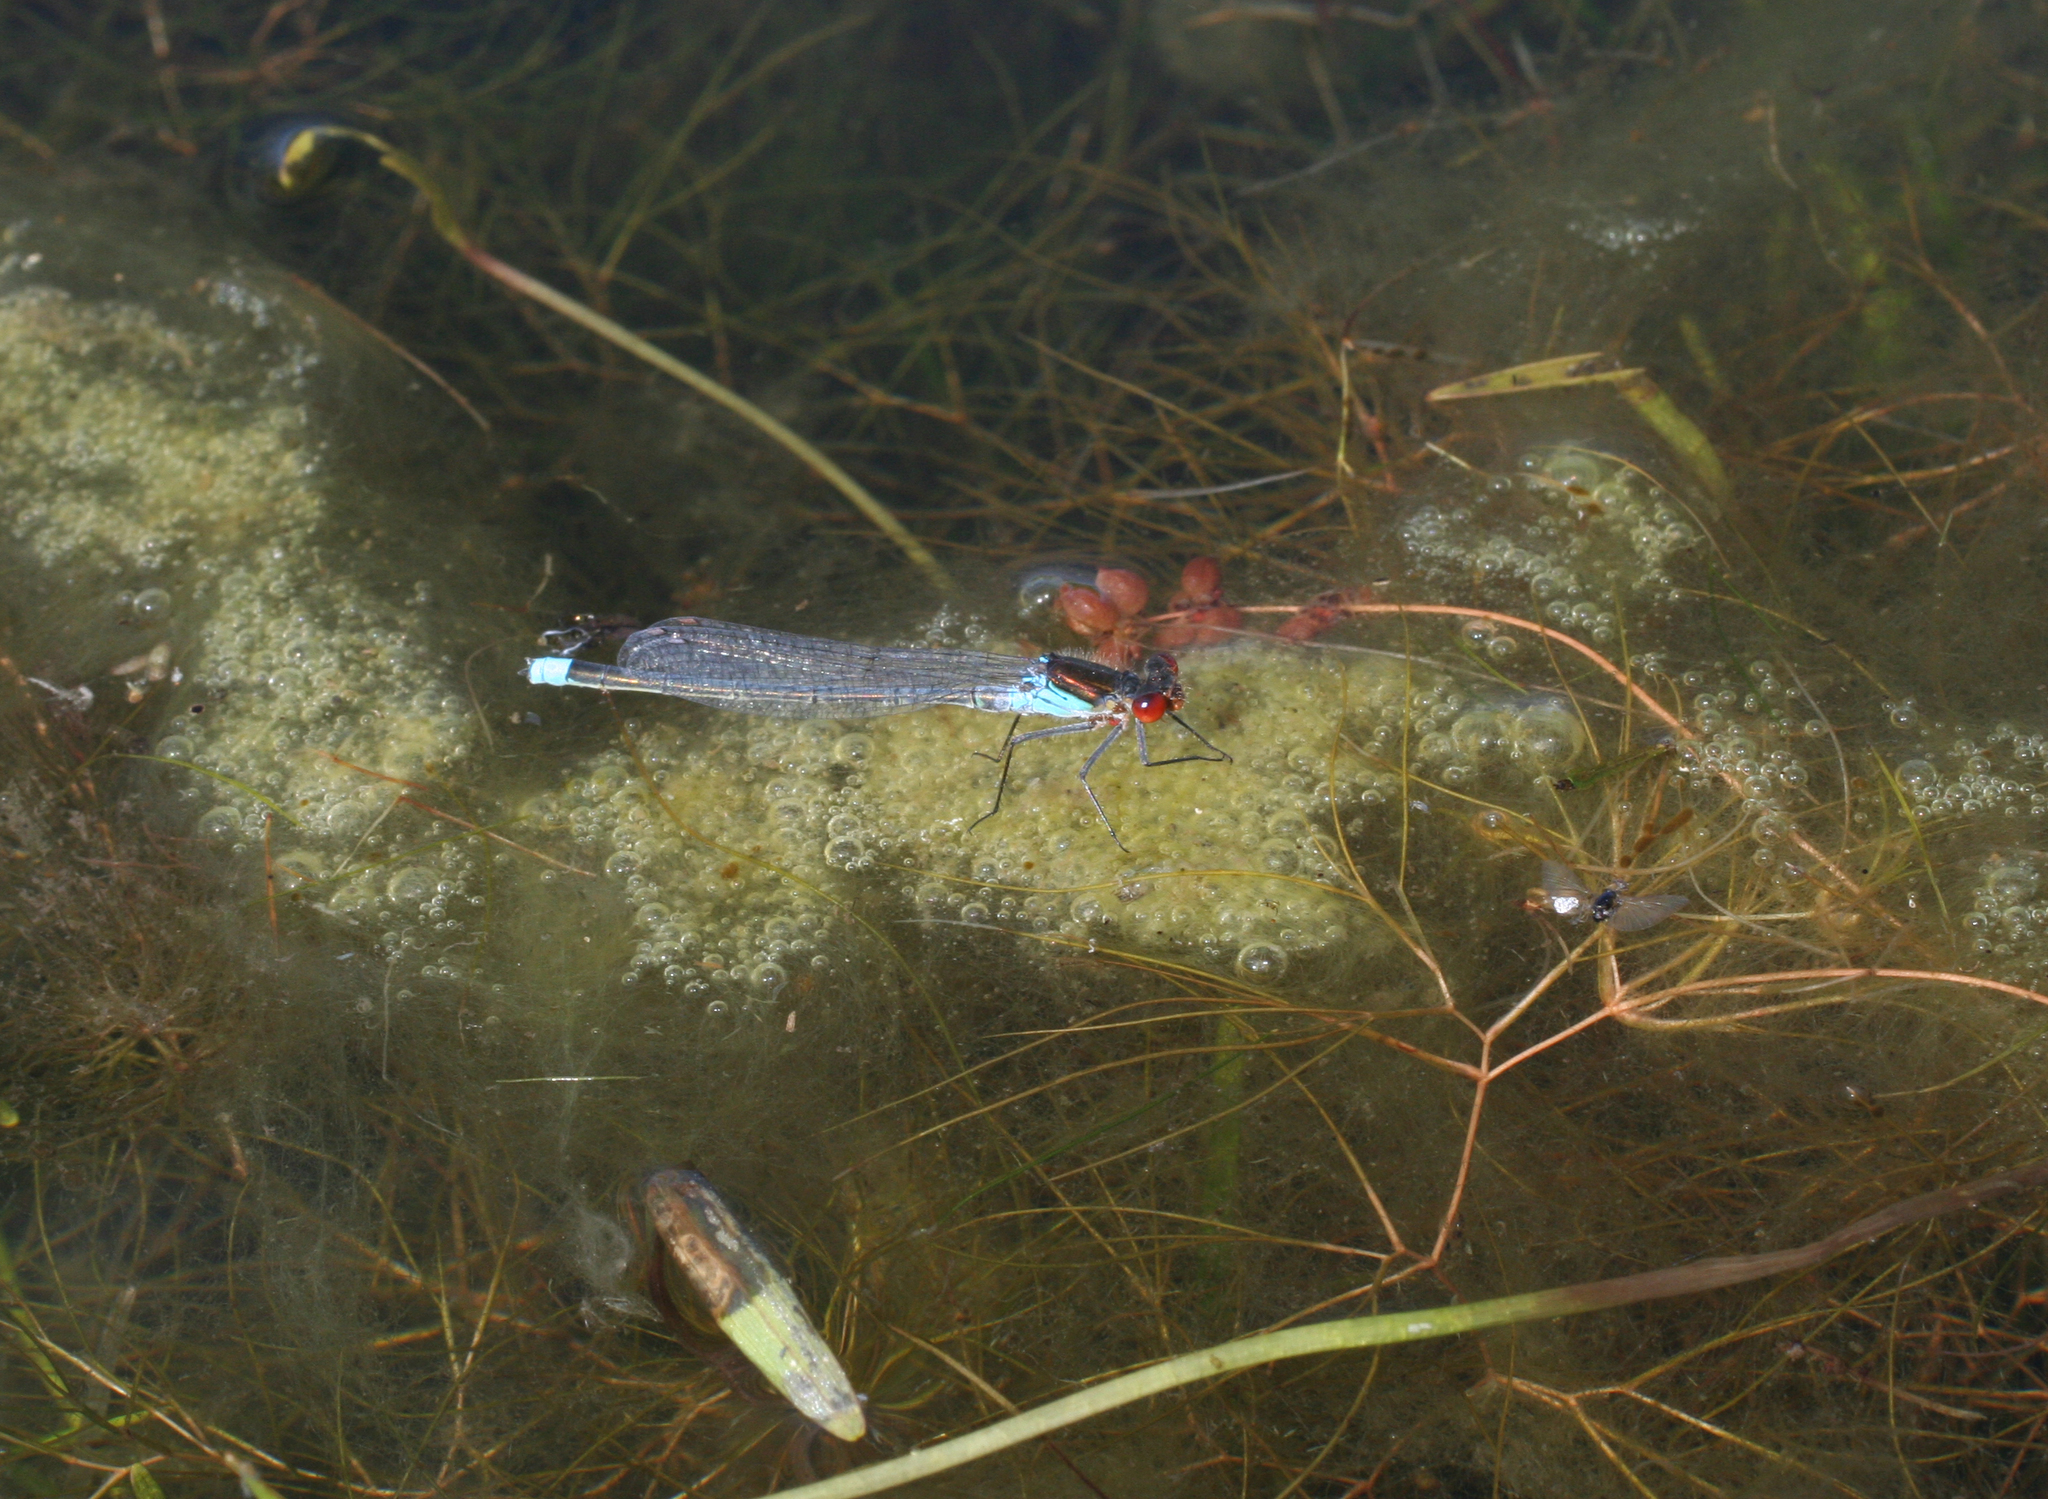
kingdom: Animalia
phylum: Arthropoda
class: Insecta
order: Odonata
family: Coenagrionidae
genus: Erythromma
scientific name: Erythromma najas
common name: Red-eyed damselfly
